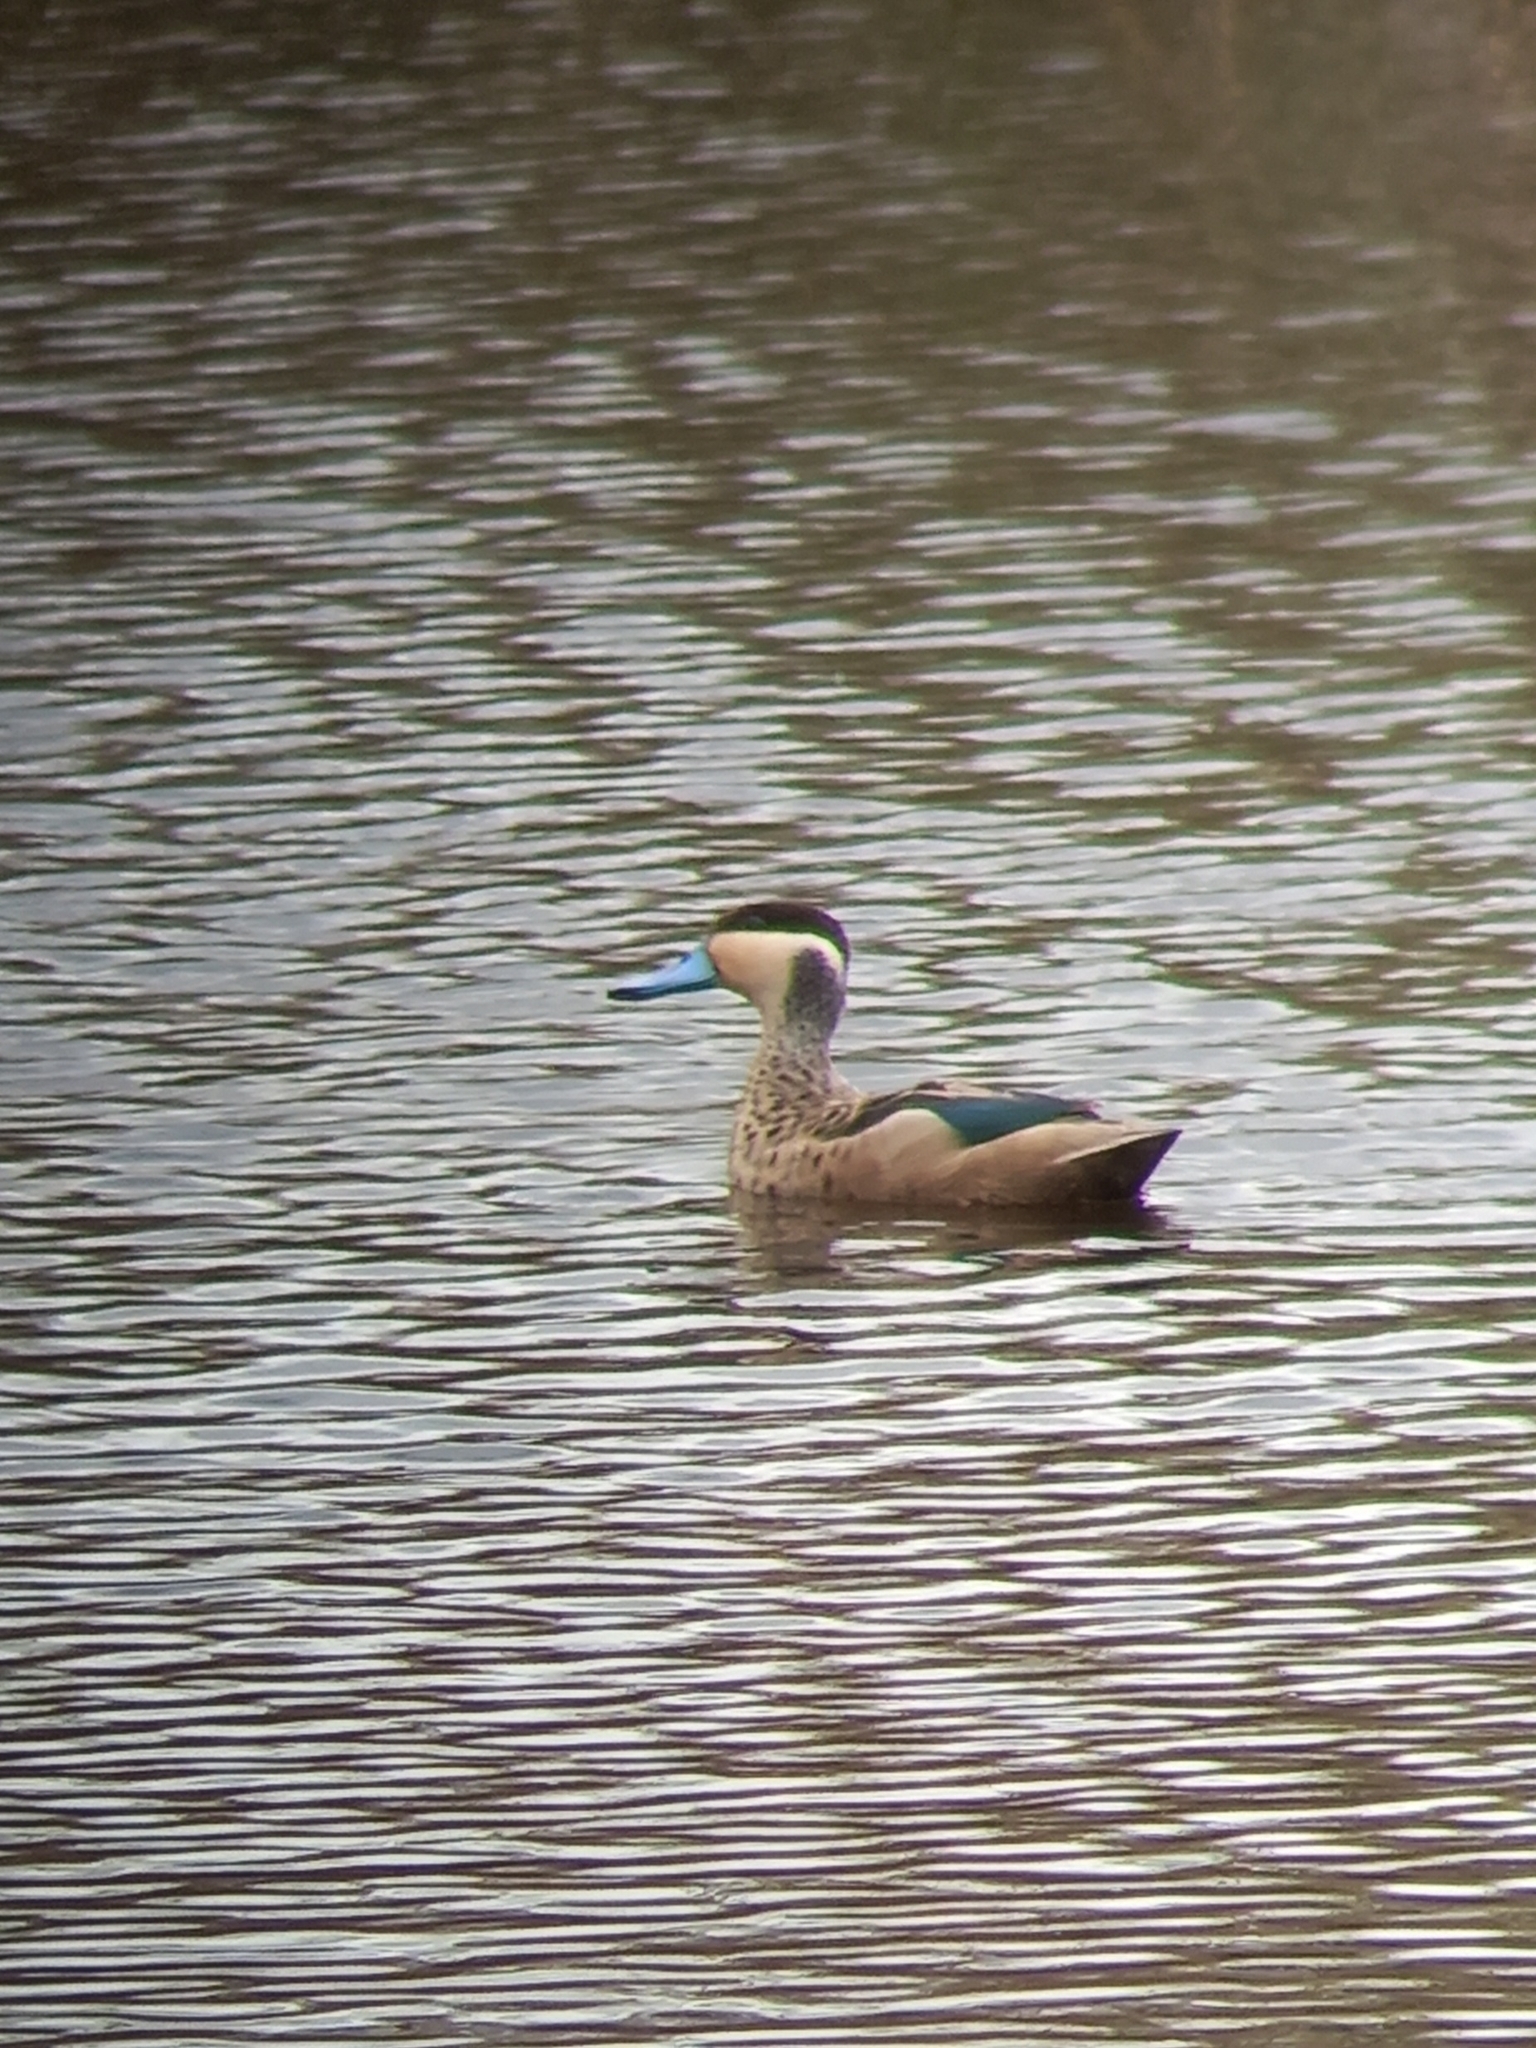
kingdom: Animalia
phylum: Chordata
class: Aves
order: Anseriformes
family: Anatidae
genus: Spatula
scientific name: Spatula hottentota
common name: Blue-billed teal
